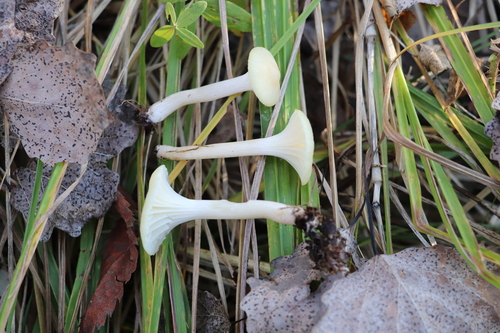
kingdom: Fungi
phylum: Basidiomycota
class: Agaricomycetes
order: Agaricales
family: Hygrophoraceae
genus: Hygrophorus
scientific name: Hygrophorus
